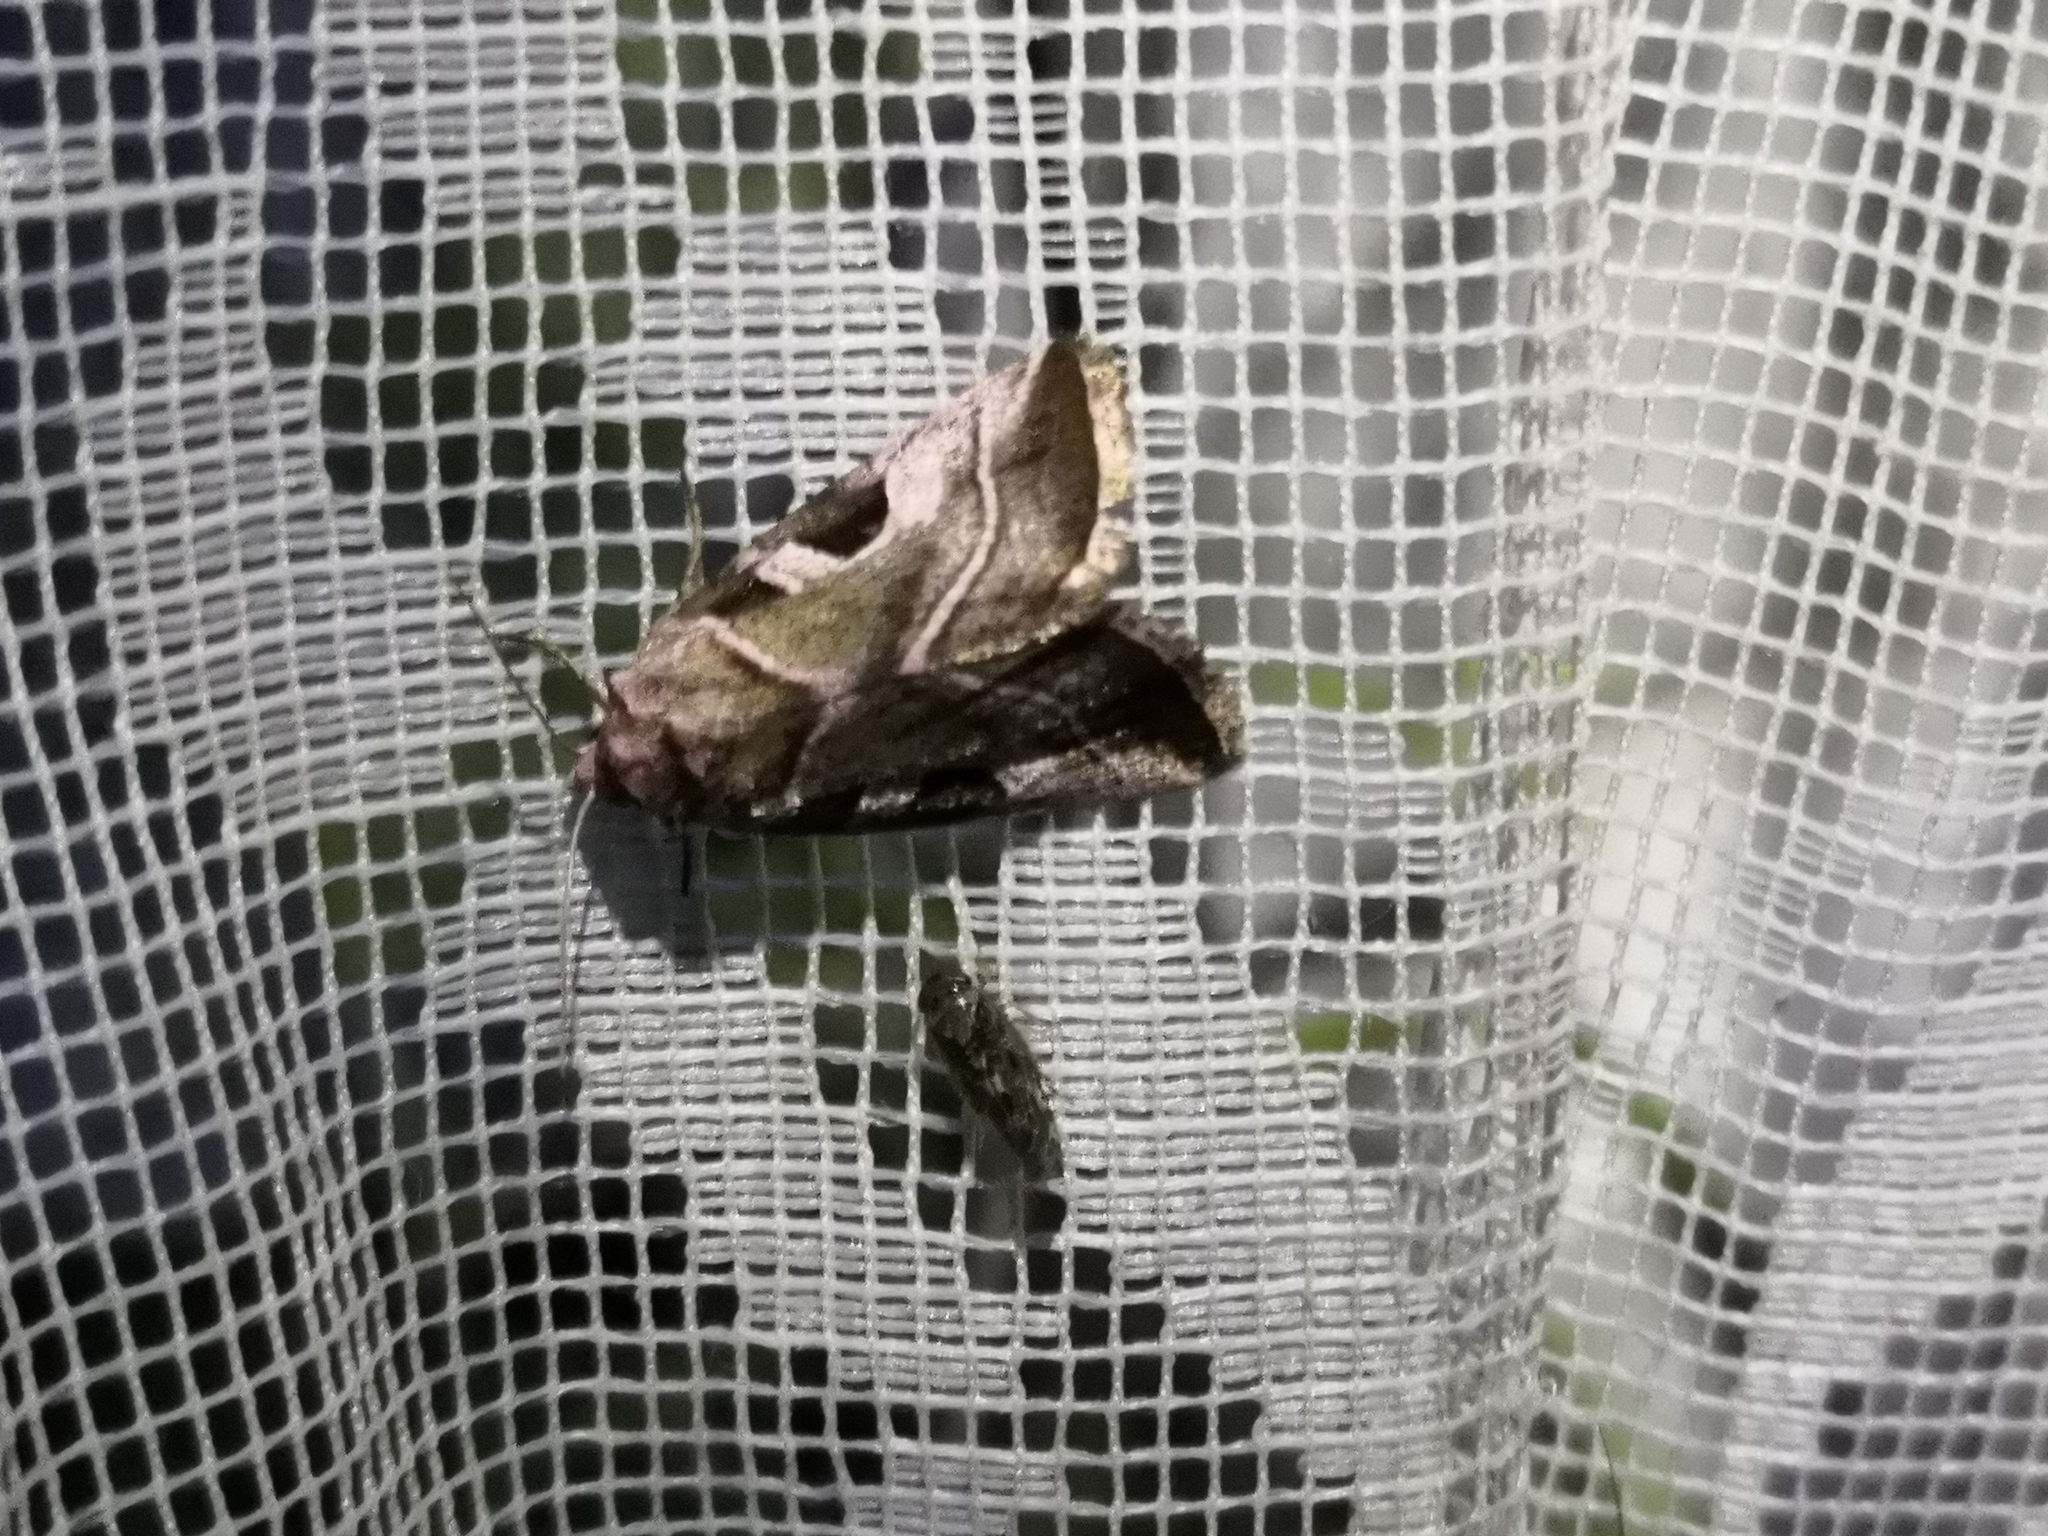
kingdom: Animalia
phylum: Arthropoda
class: Insecta
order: Lepidoptera
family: Noctuidae
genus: Eucarta
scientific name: Eucarta virgo
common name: Silvery gem
